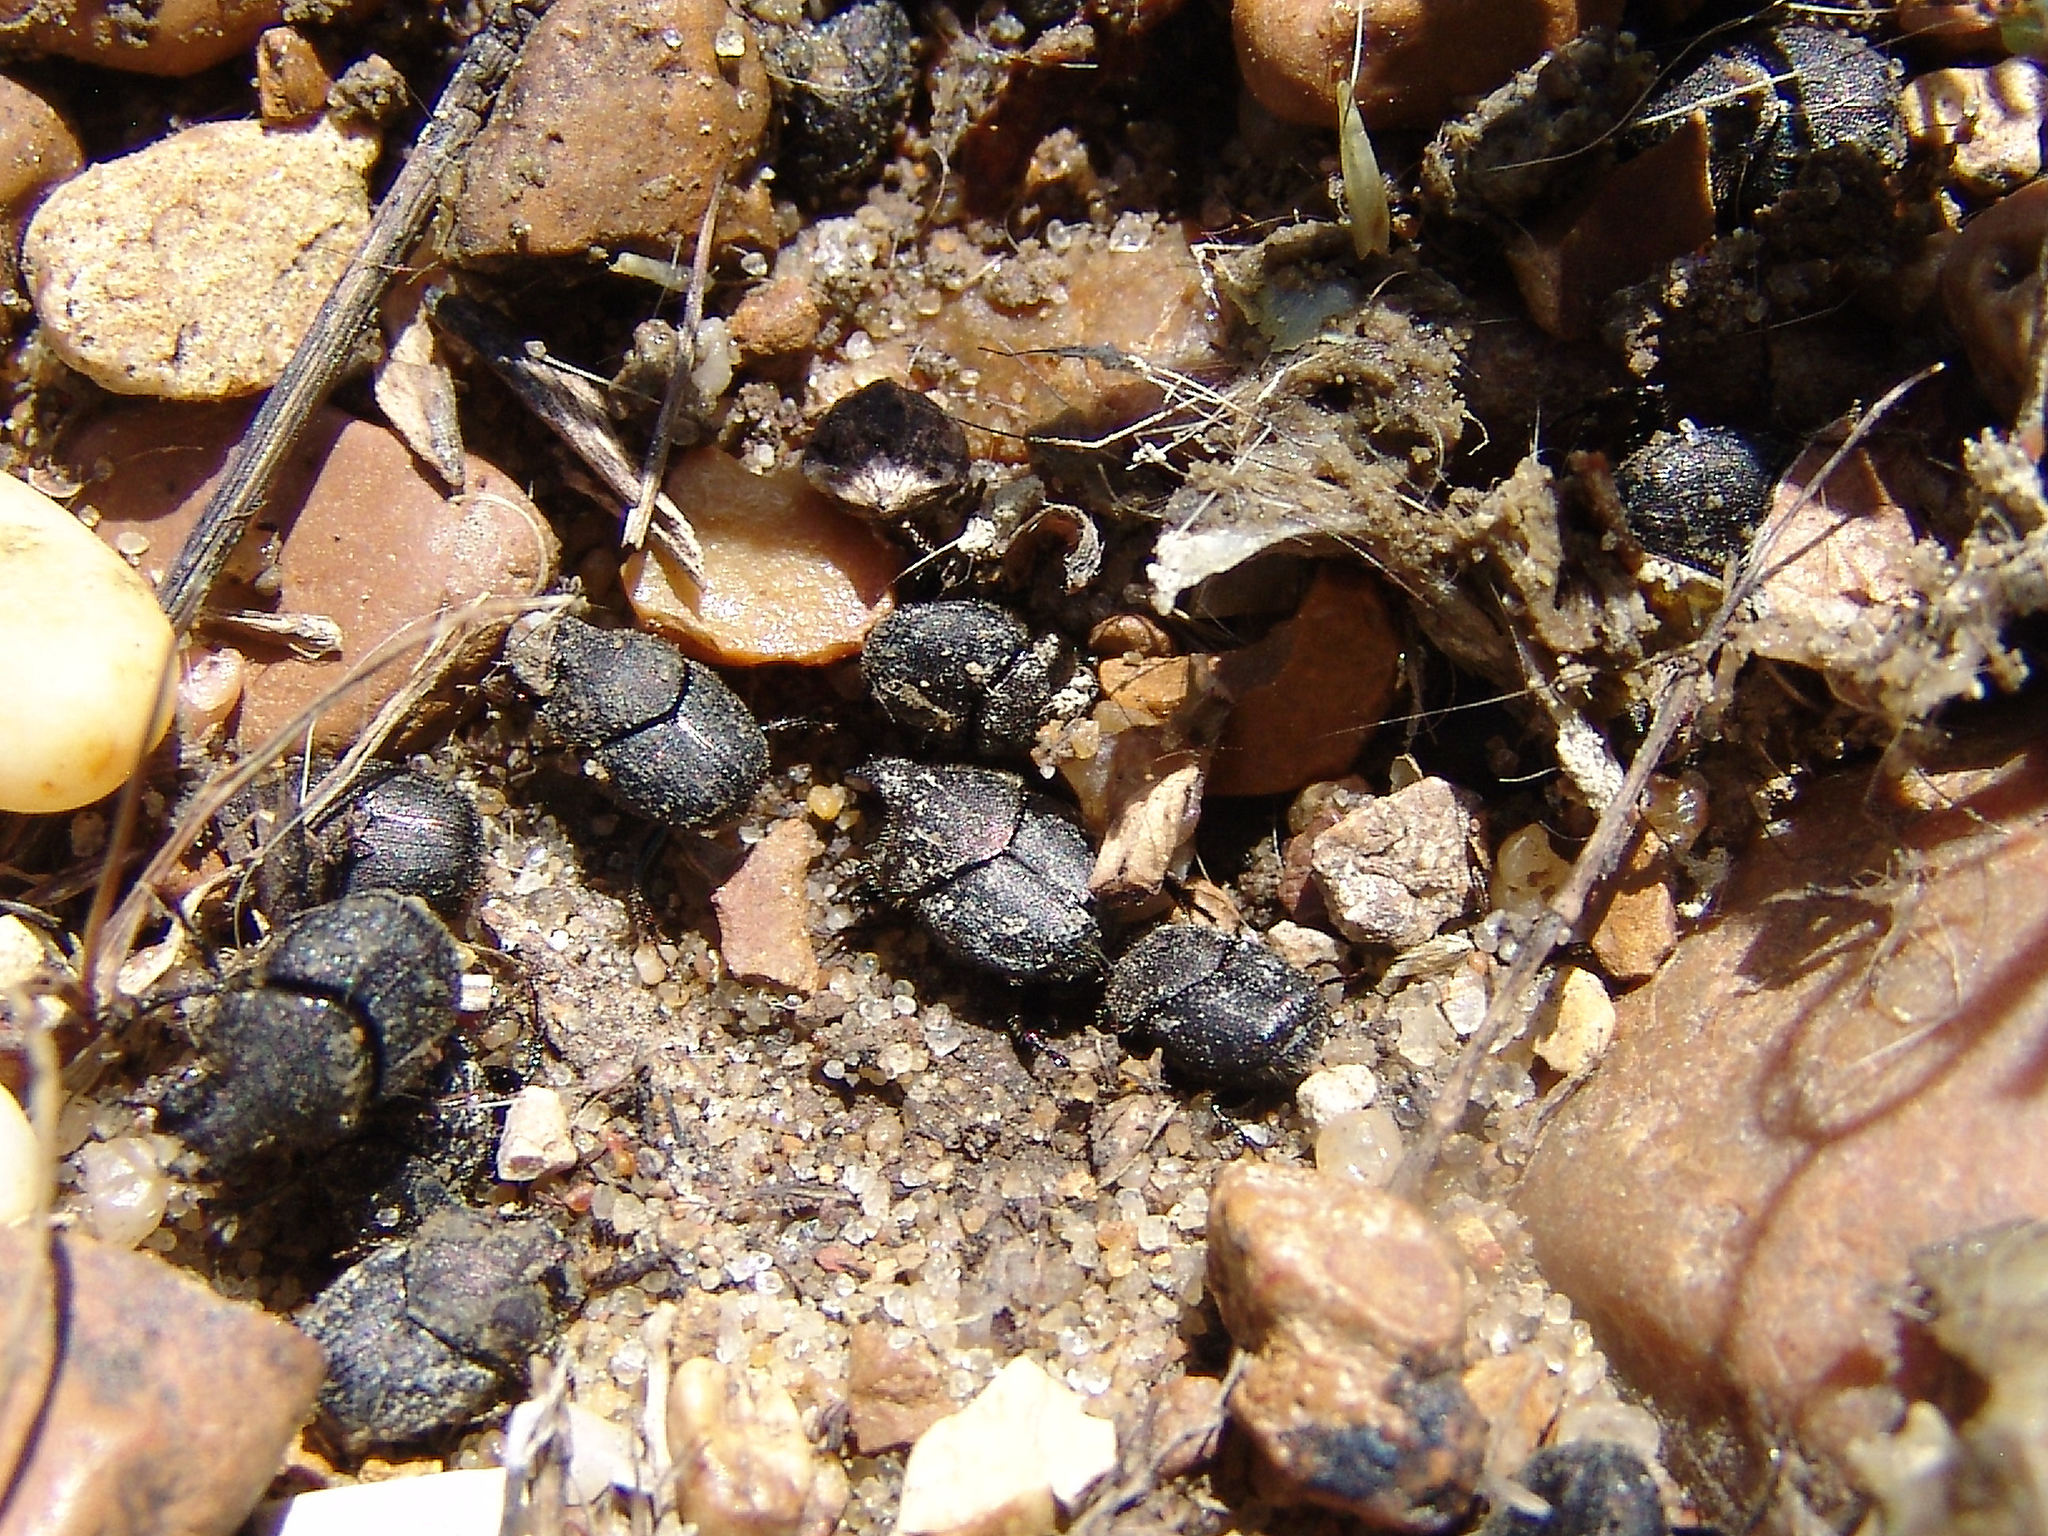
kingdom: Animalia
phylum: Arthropoda
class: Insecta
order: Coleoptera
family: Scarabaeidae
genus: Onthophagus
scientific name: Onthophagus hecate
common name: Scooped scarab
